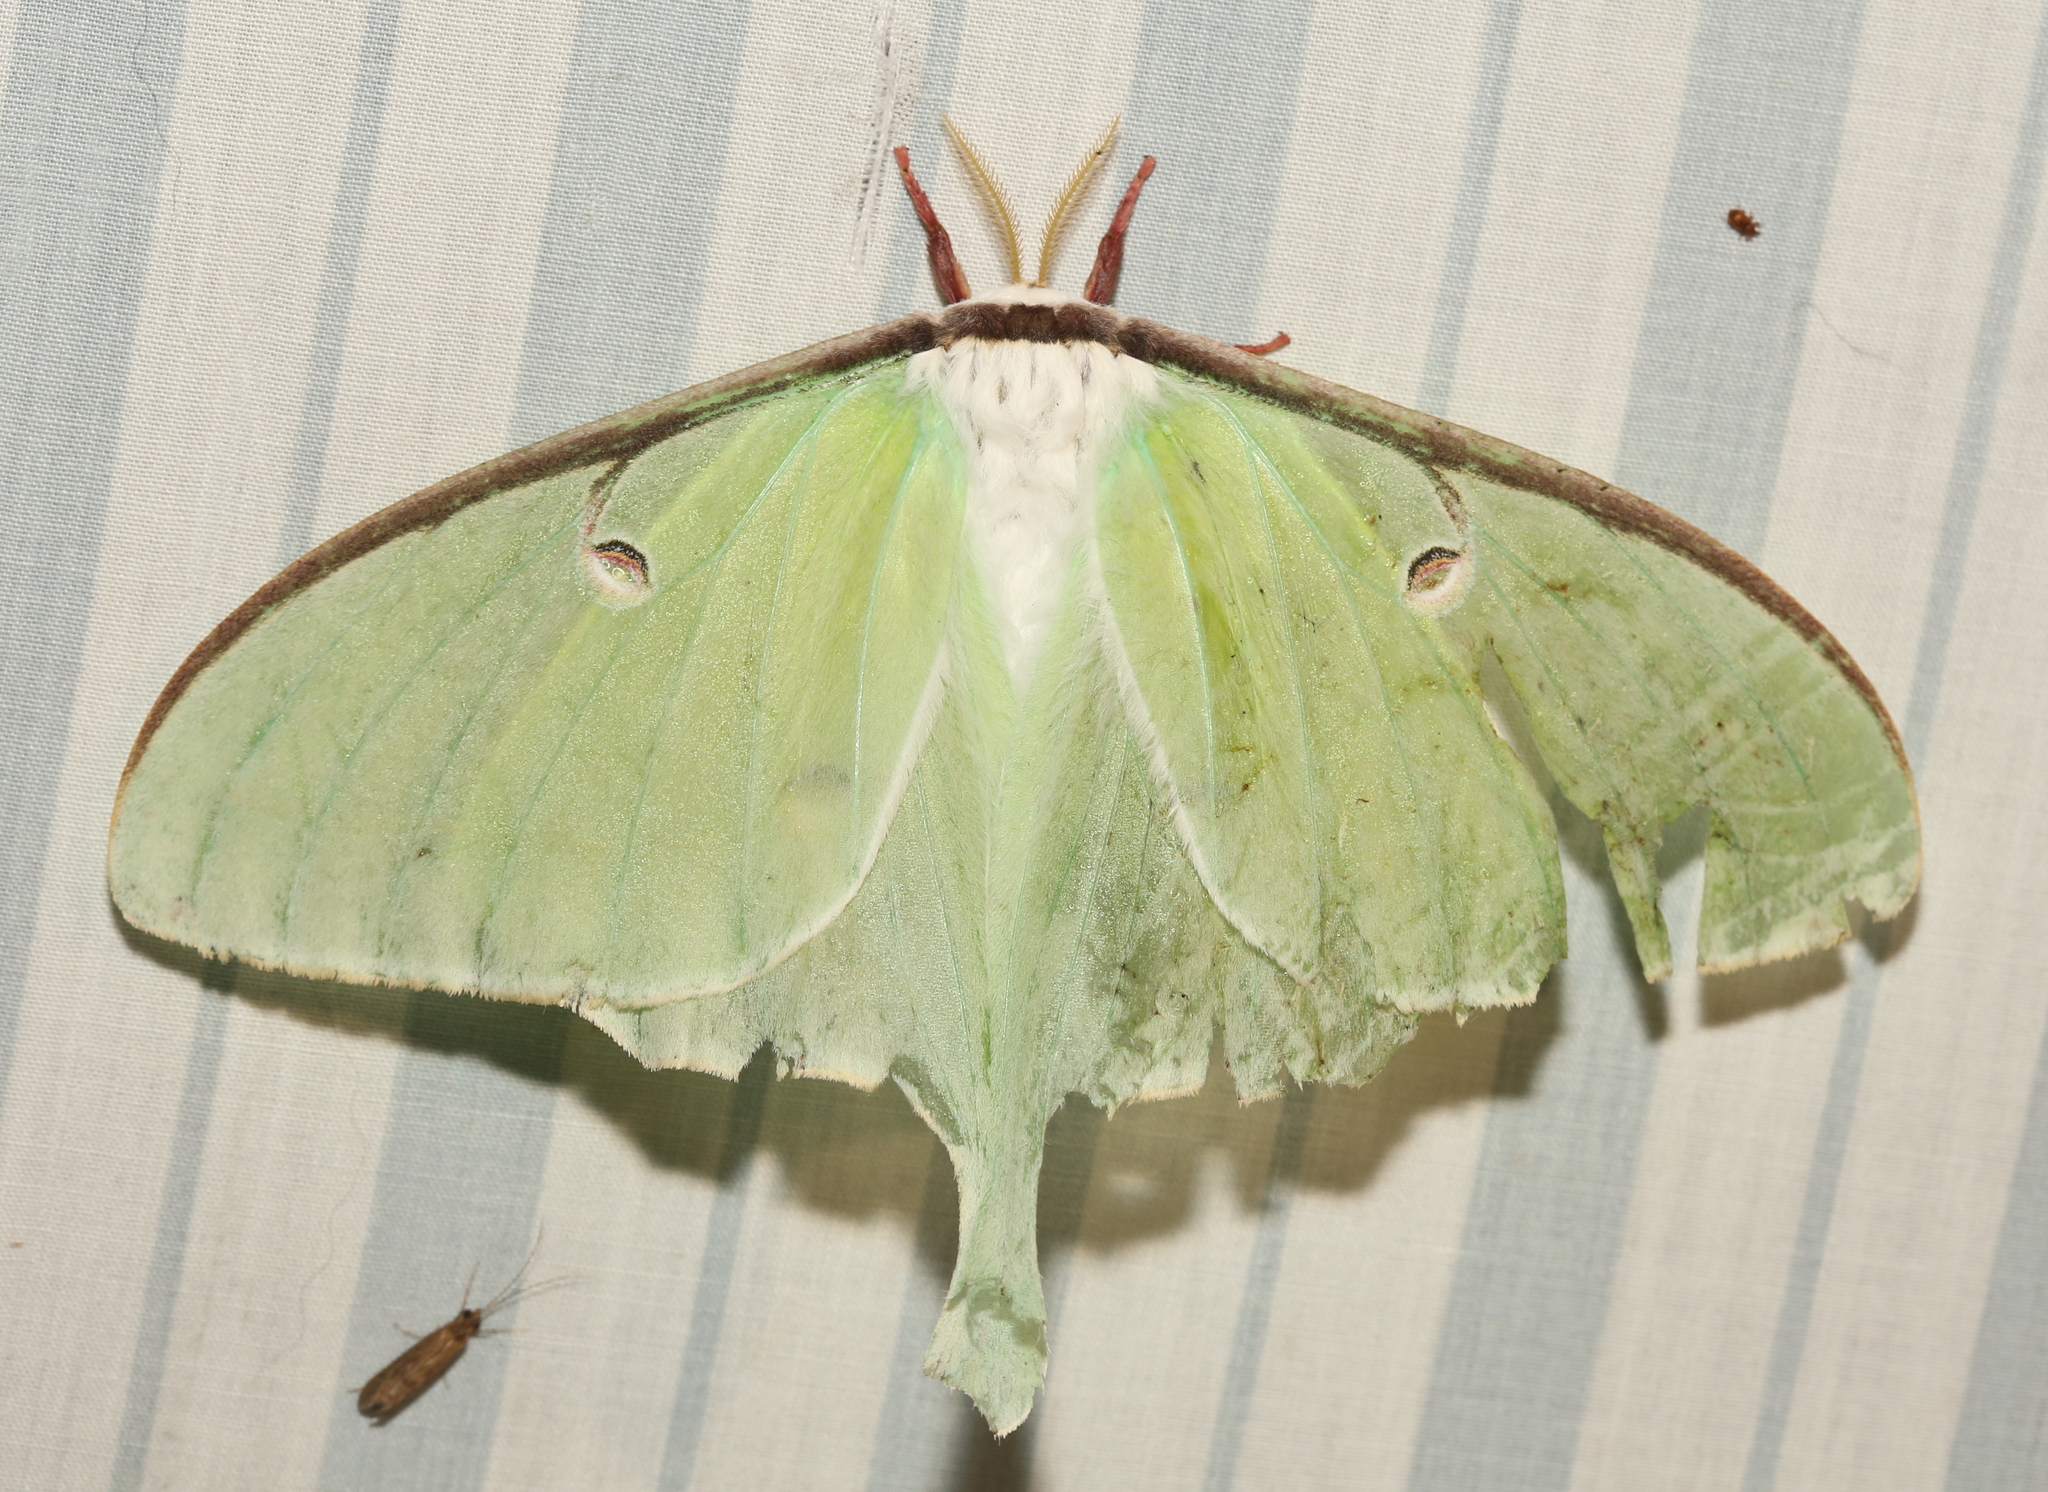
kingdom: Animalia
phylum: Arthropoda
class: Insecta
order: Lepidoptera
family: Saturniidae
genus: Actias
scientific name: Actias luna
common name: Luna moth
